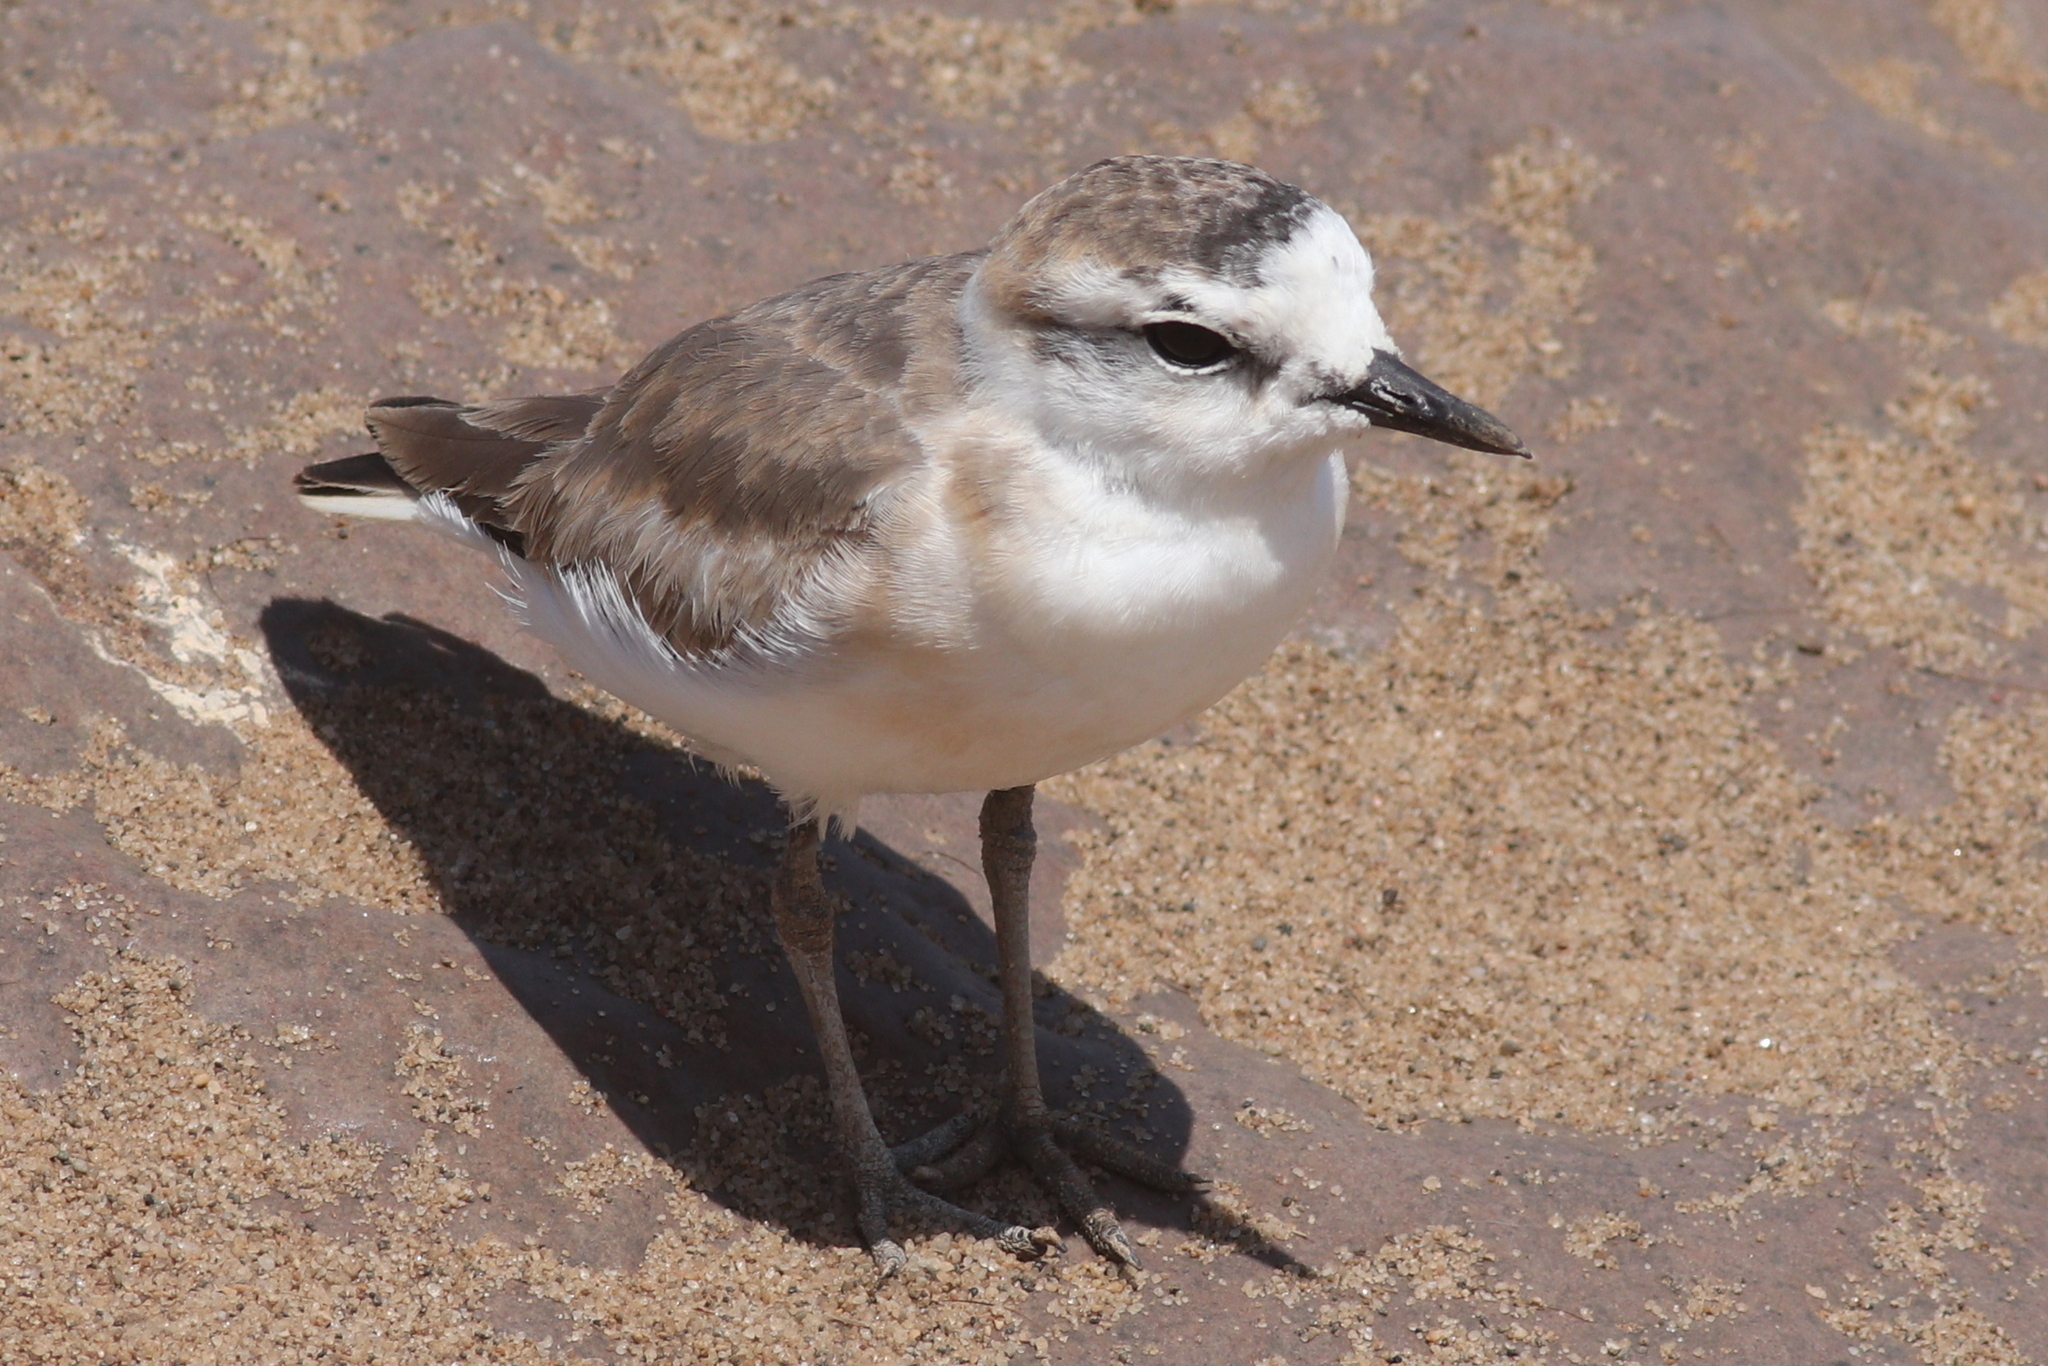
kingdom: Animalia
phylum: Chordata
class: Aves
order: Charadriiformes
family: Charadriidae
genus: Anarhynchus
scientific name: Anarhynchus
